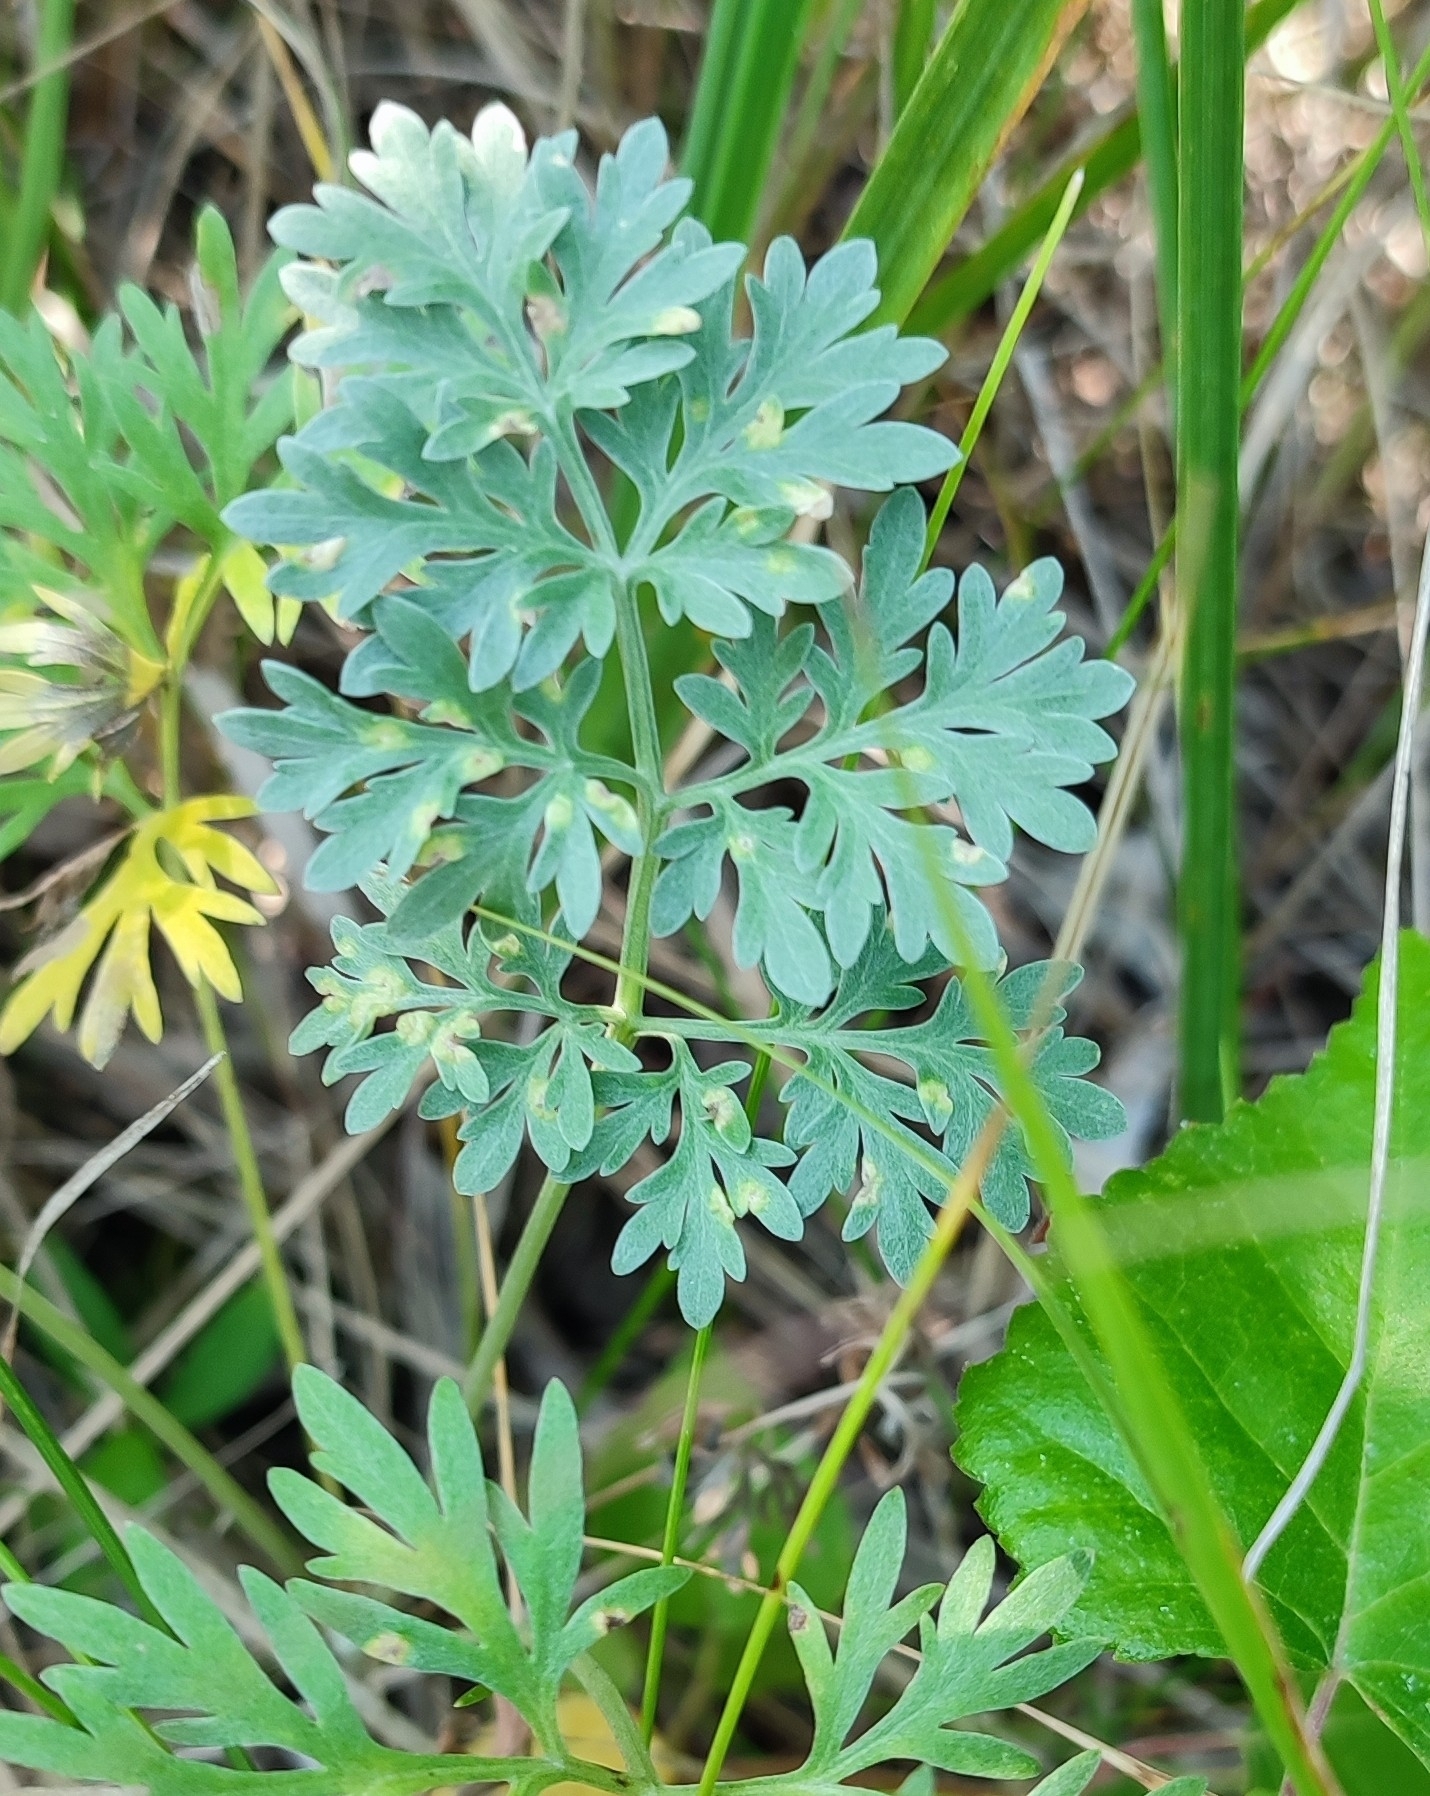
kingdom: Plantae
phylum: Tracheophyta
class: Magnoliopsida
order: Asterales
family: Asteraceae
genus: Artemisia
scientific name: Artemisia absinthium
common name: Wormwood
